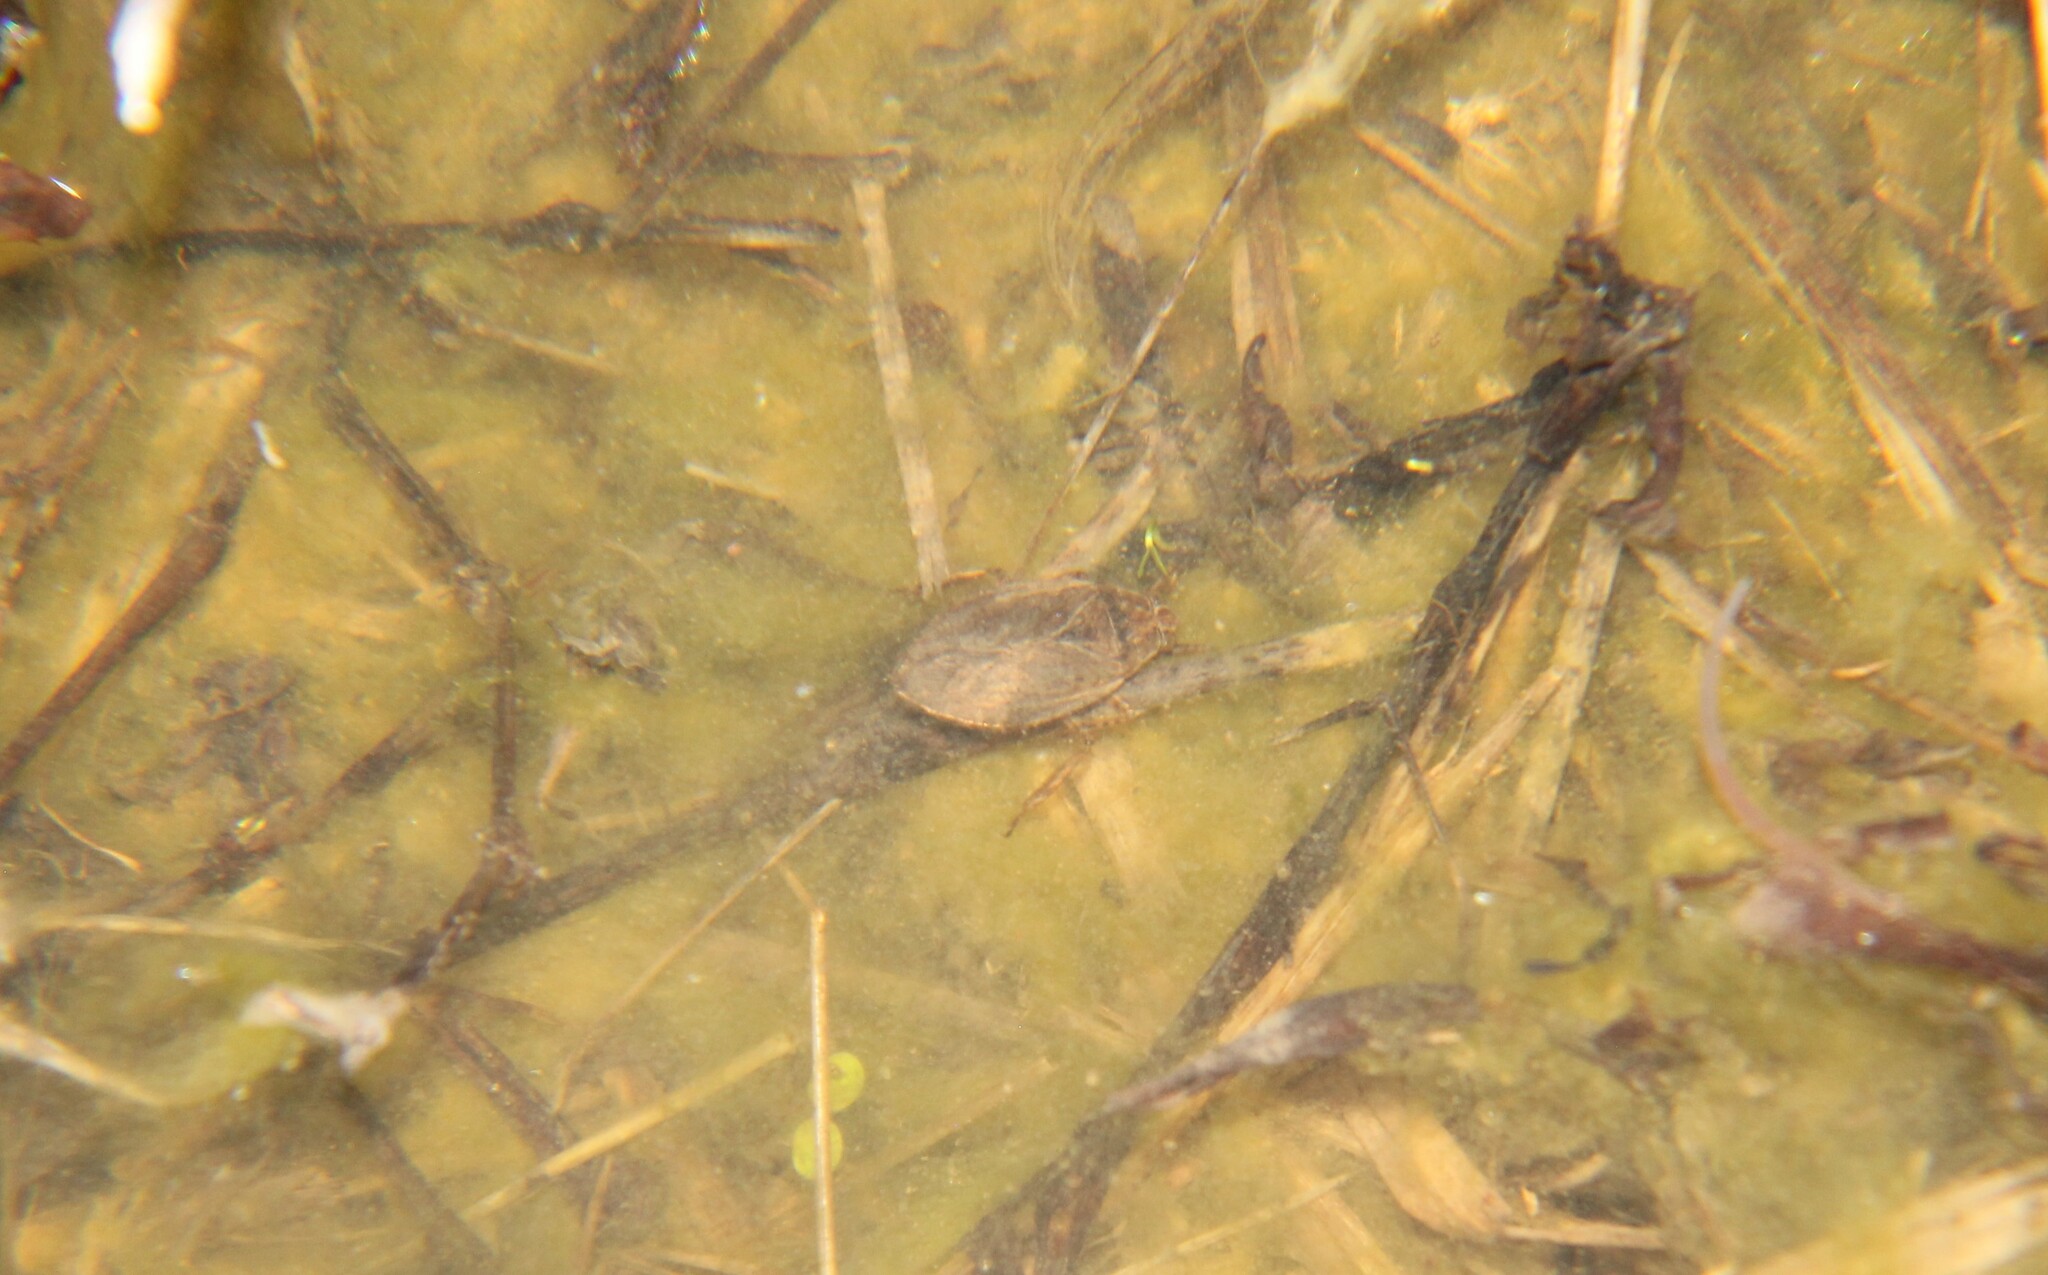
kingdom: Animalia
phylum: Arthropoda
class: Insecta
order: Hemiptera
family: Belostomatidae
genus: Belostoma
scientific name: Belostoma
